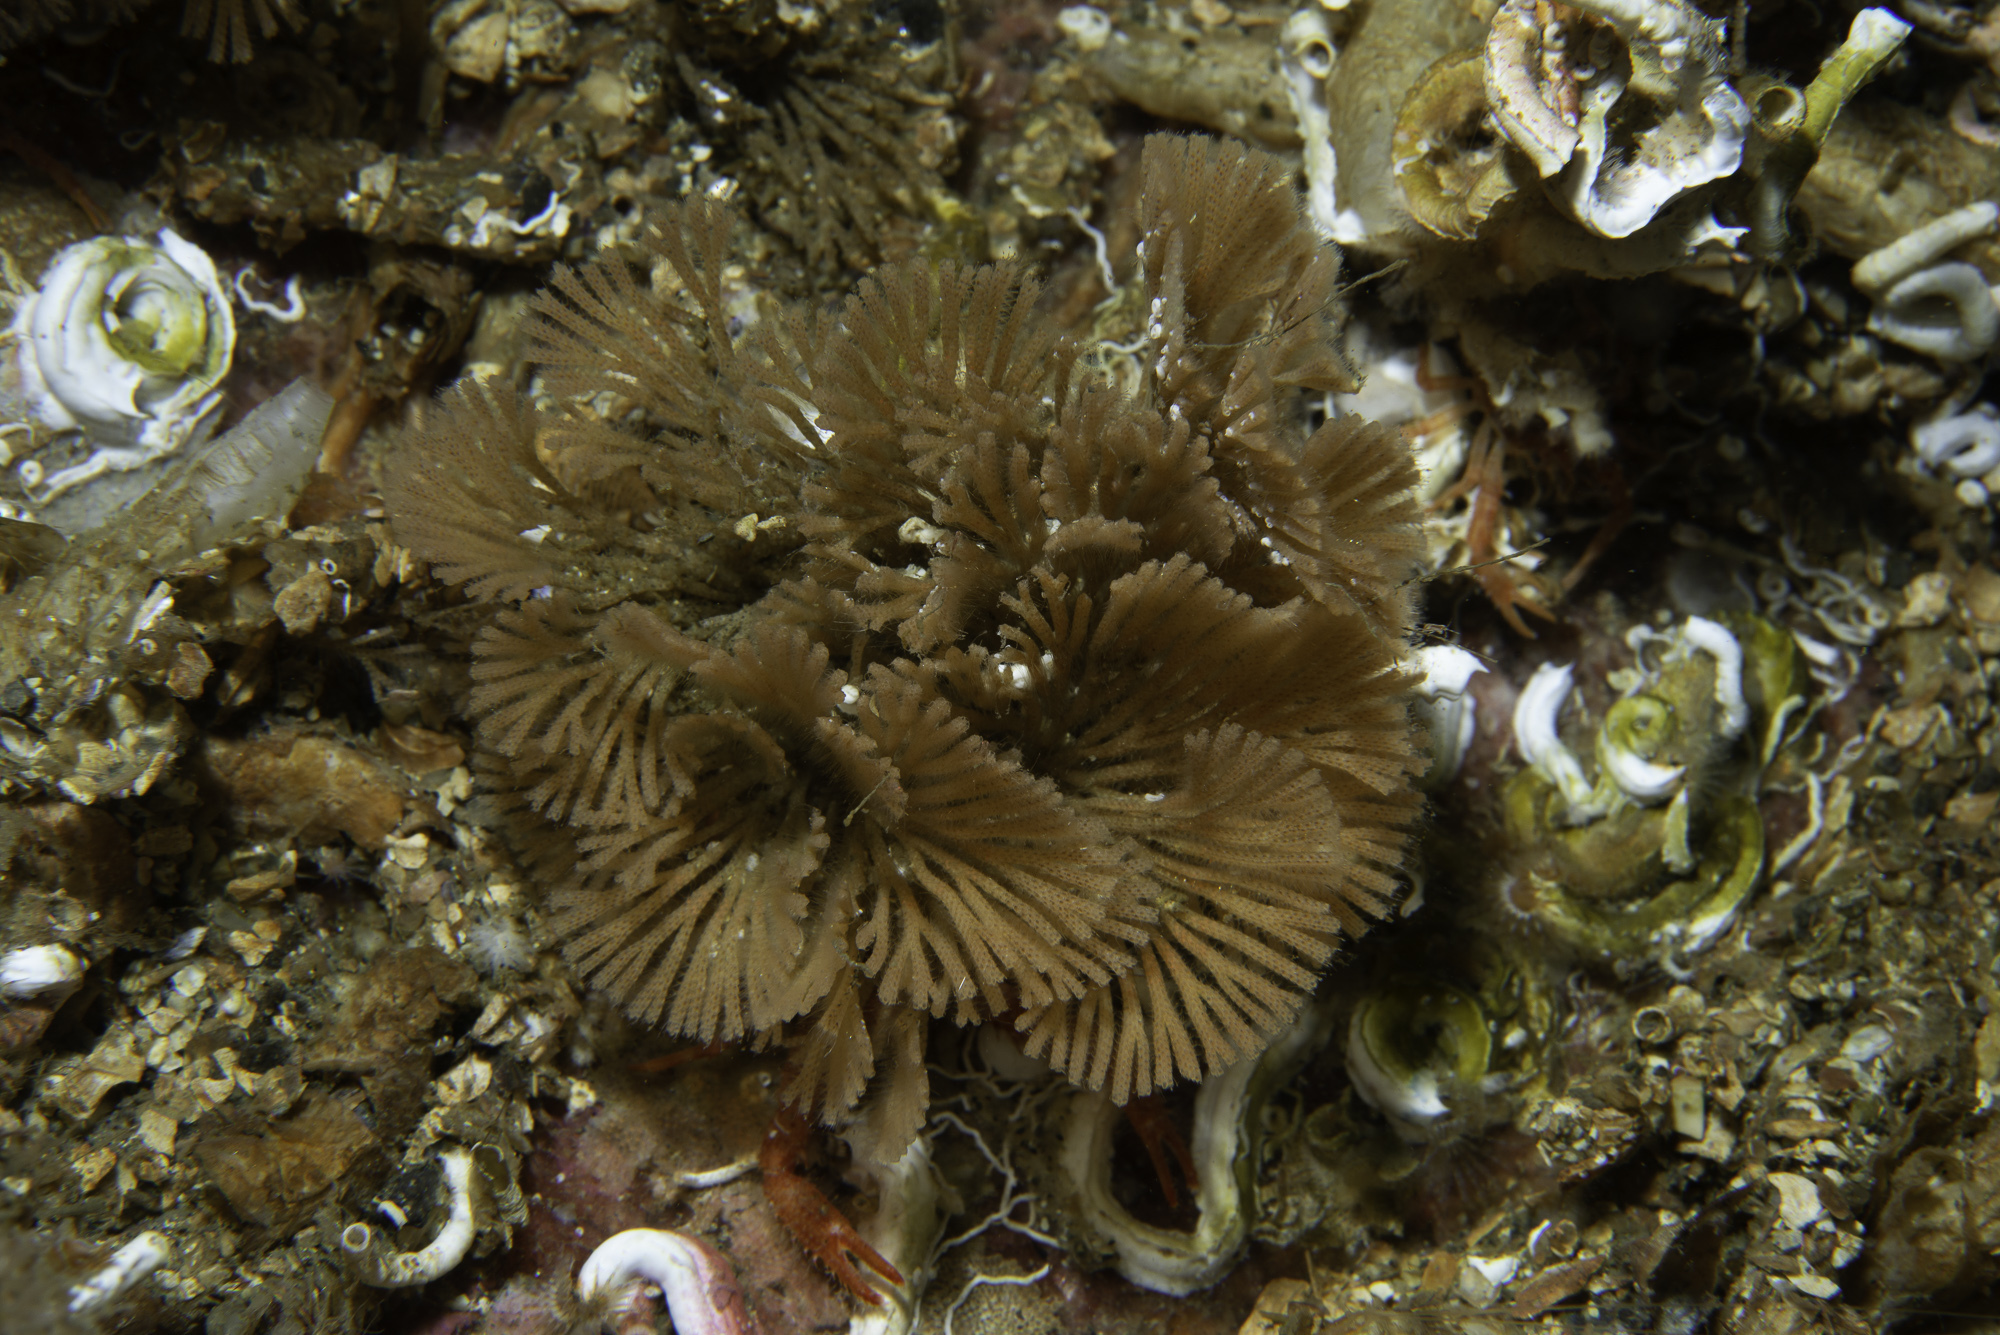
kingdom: Animalia
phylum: Bryozoa
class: Gymnolaemata
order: Cheilostomatida
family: Candidae
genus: Caberea
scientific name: Caberea ellisii
